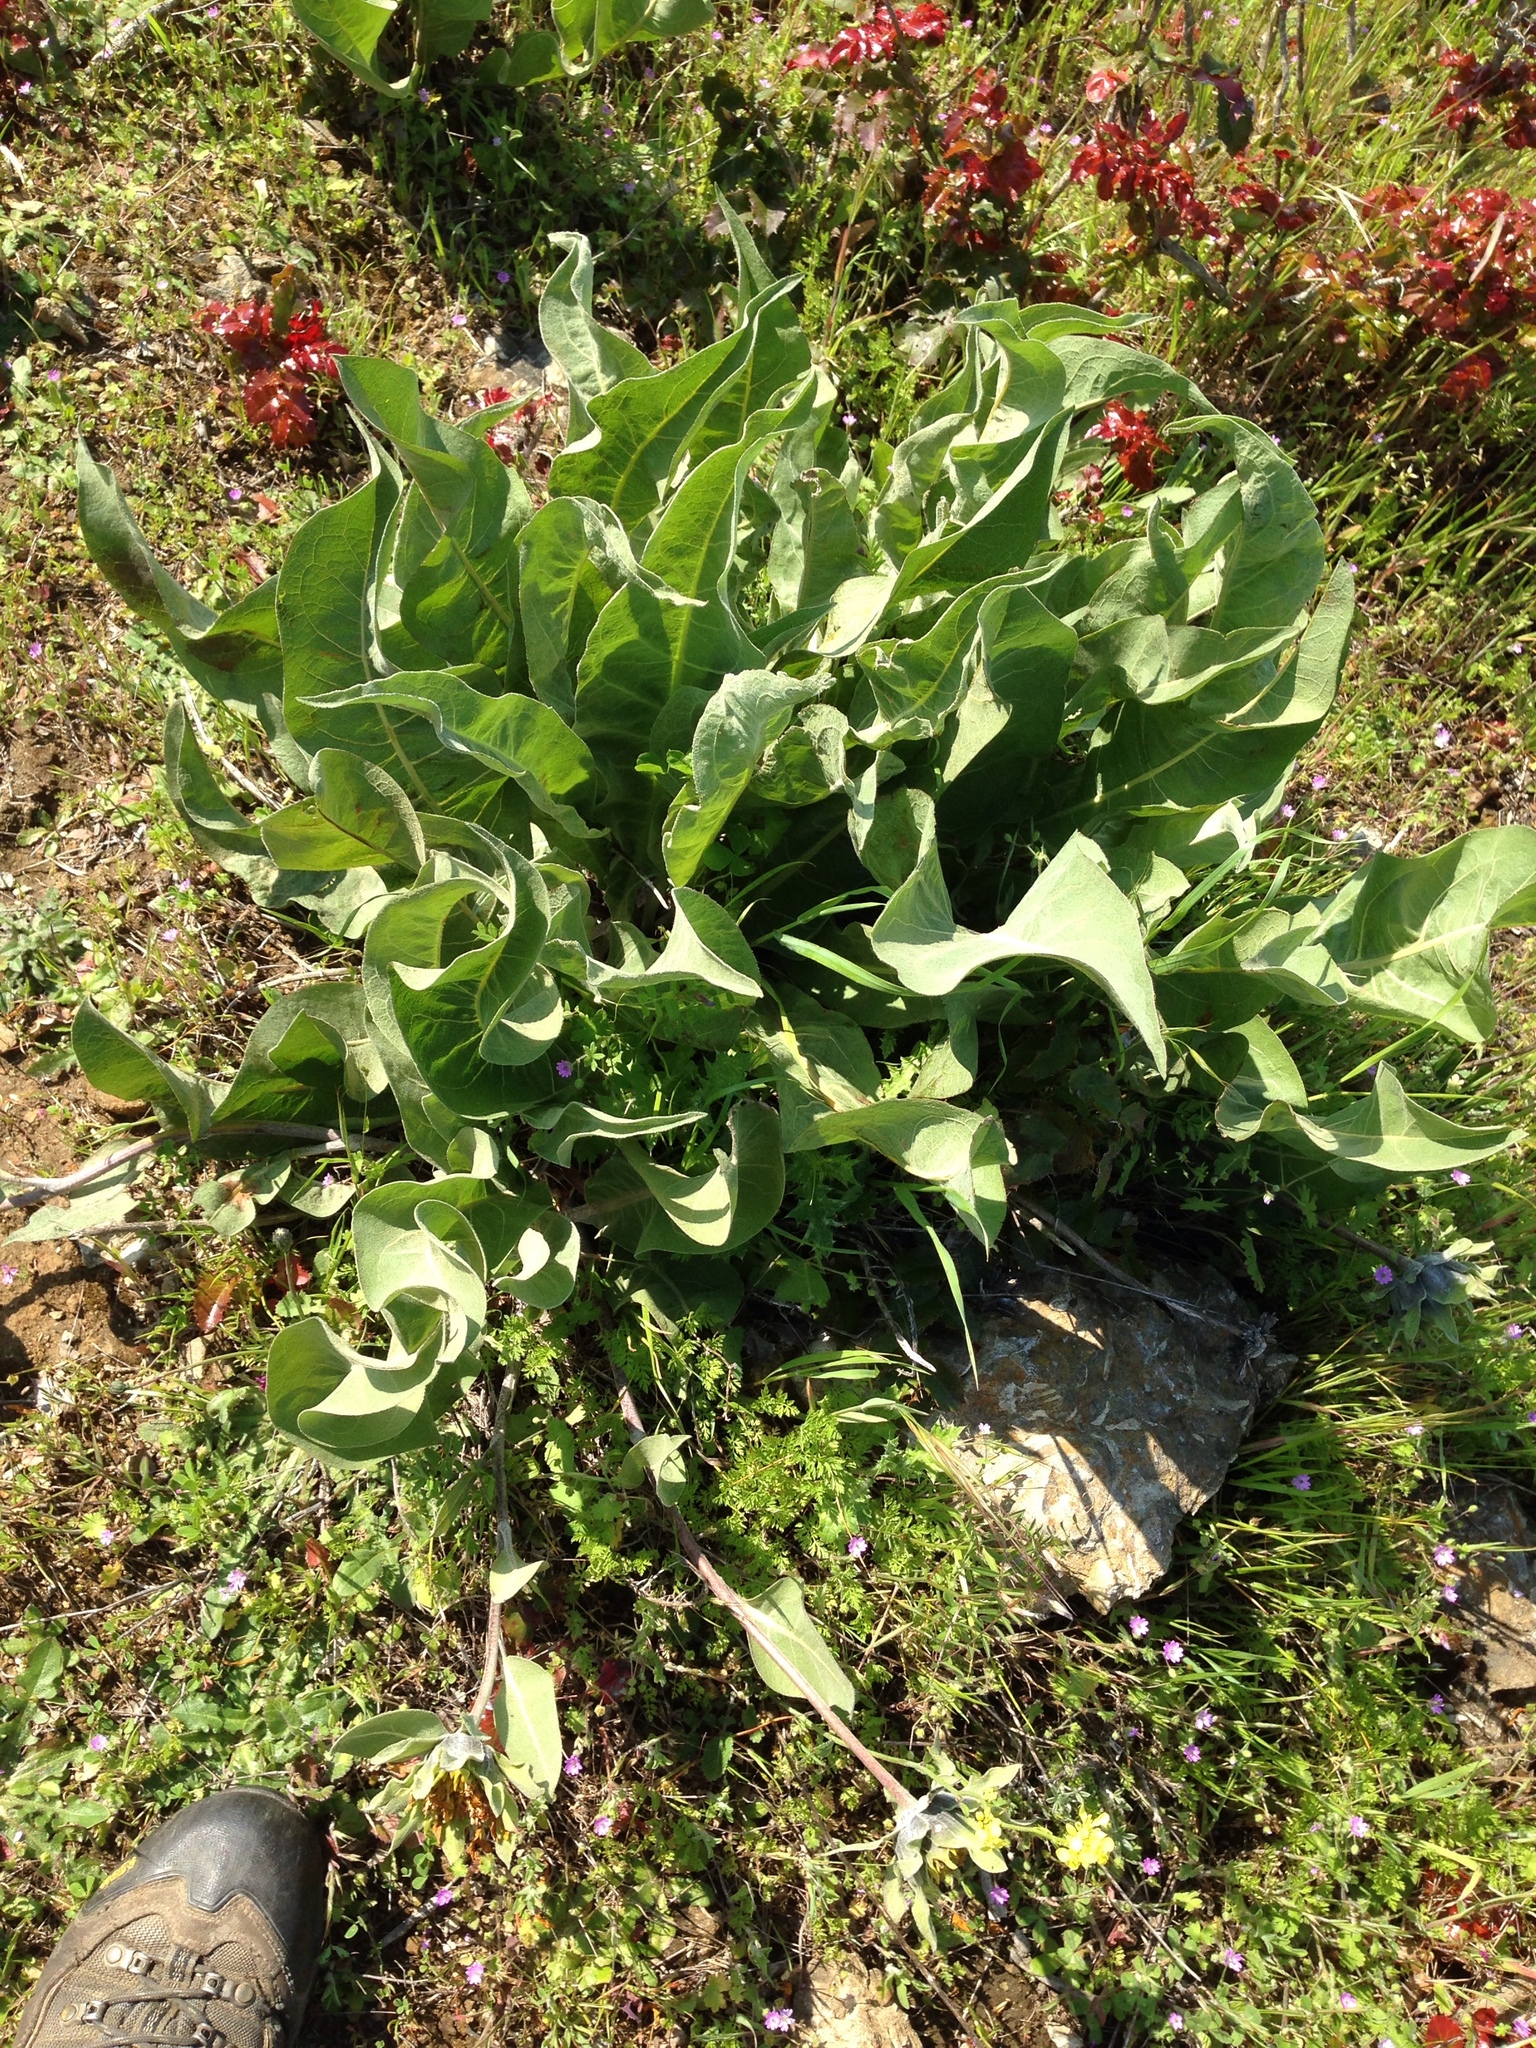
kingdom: Plantae
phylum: Tracheophyta
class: Magnoliopsida
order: Asterales
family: Asteraceae
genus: Wyethia
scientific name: Wyethia helenioides
